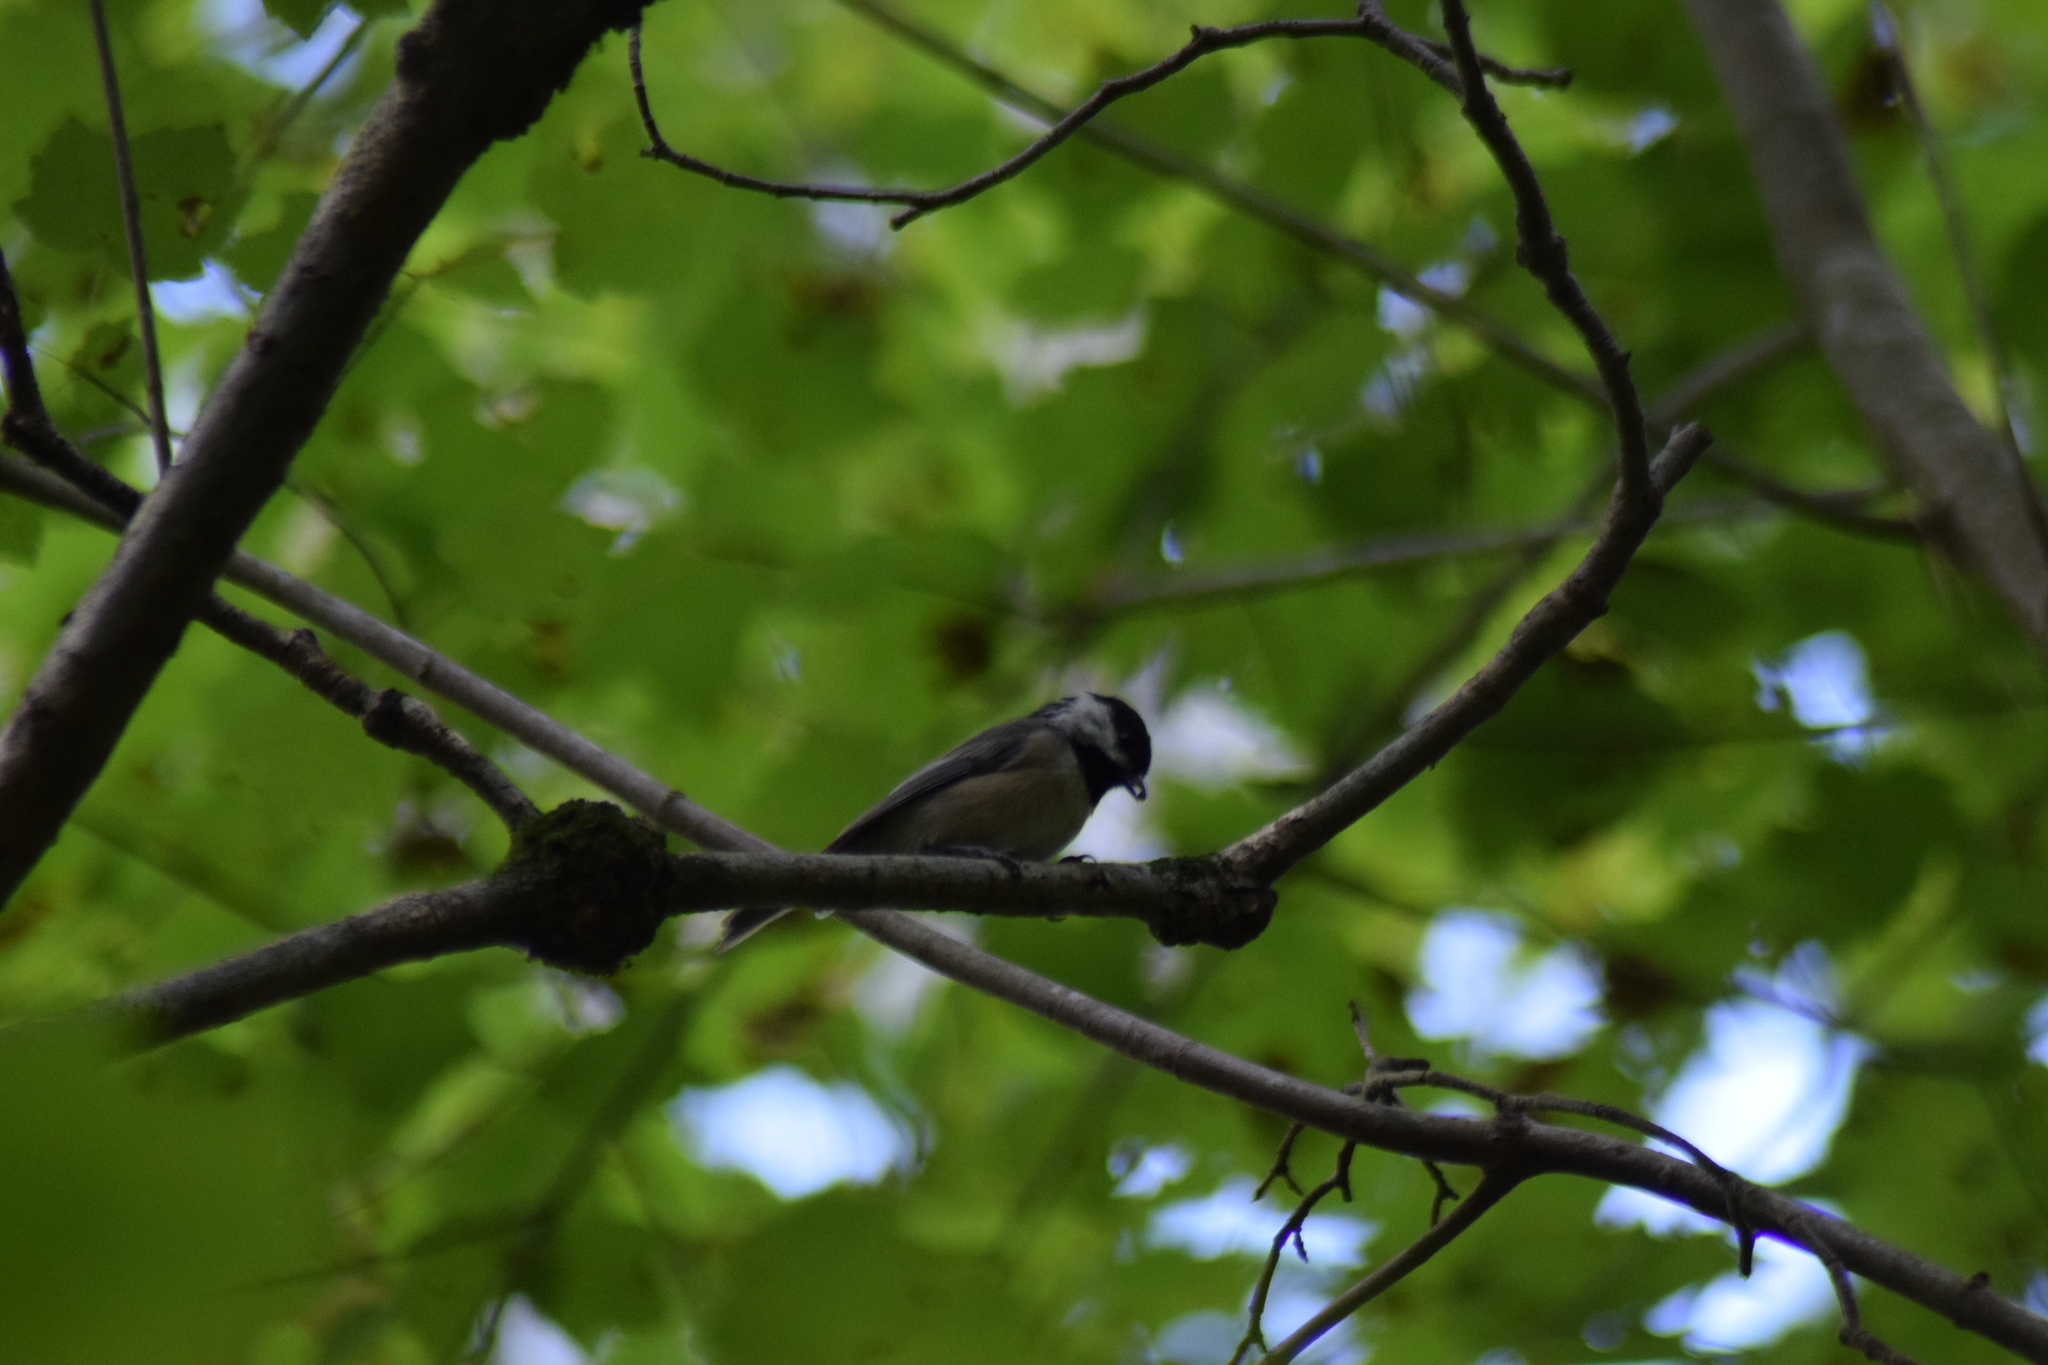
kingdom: Animalia
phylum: Chordata
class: Aves
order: Passeriformes
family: Paridae
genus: Poecile
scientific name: Poecile carolinensis
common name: Carolina chickadee
